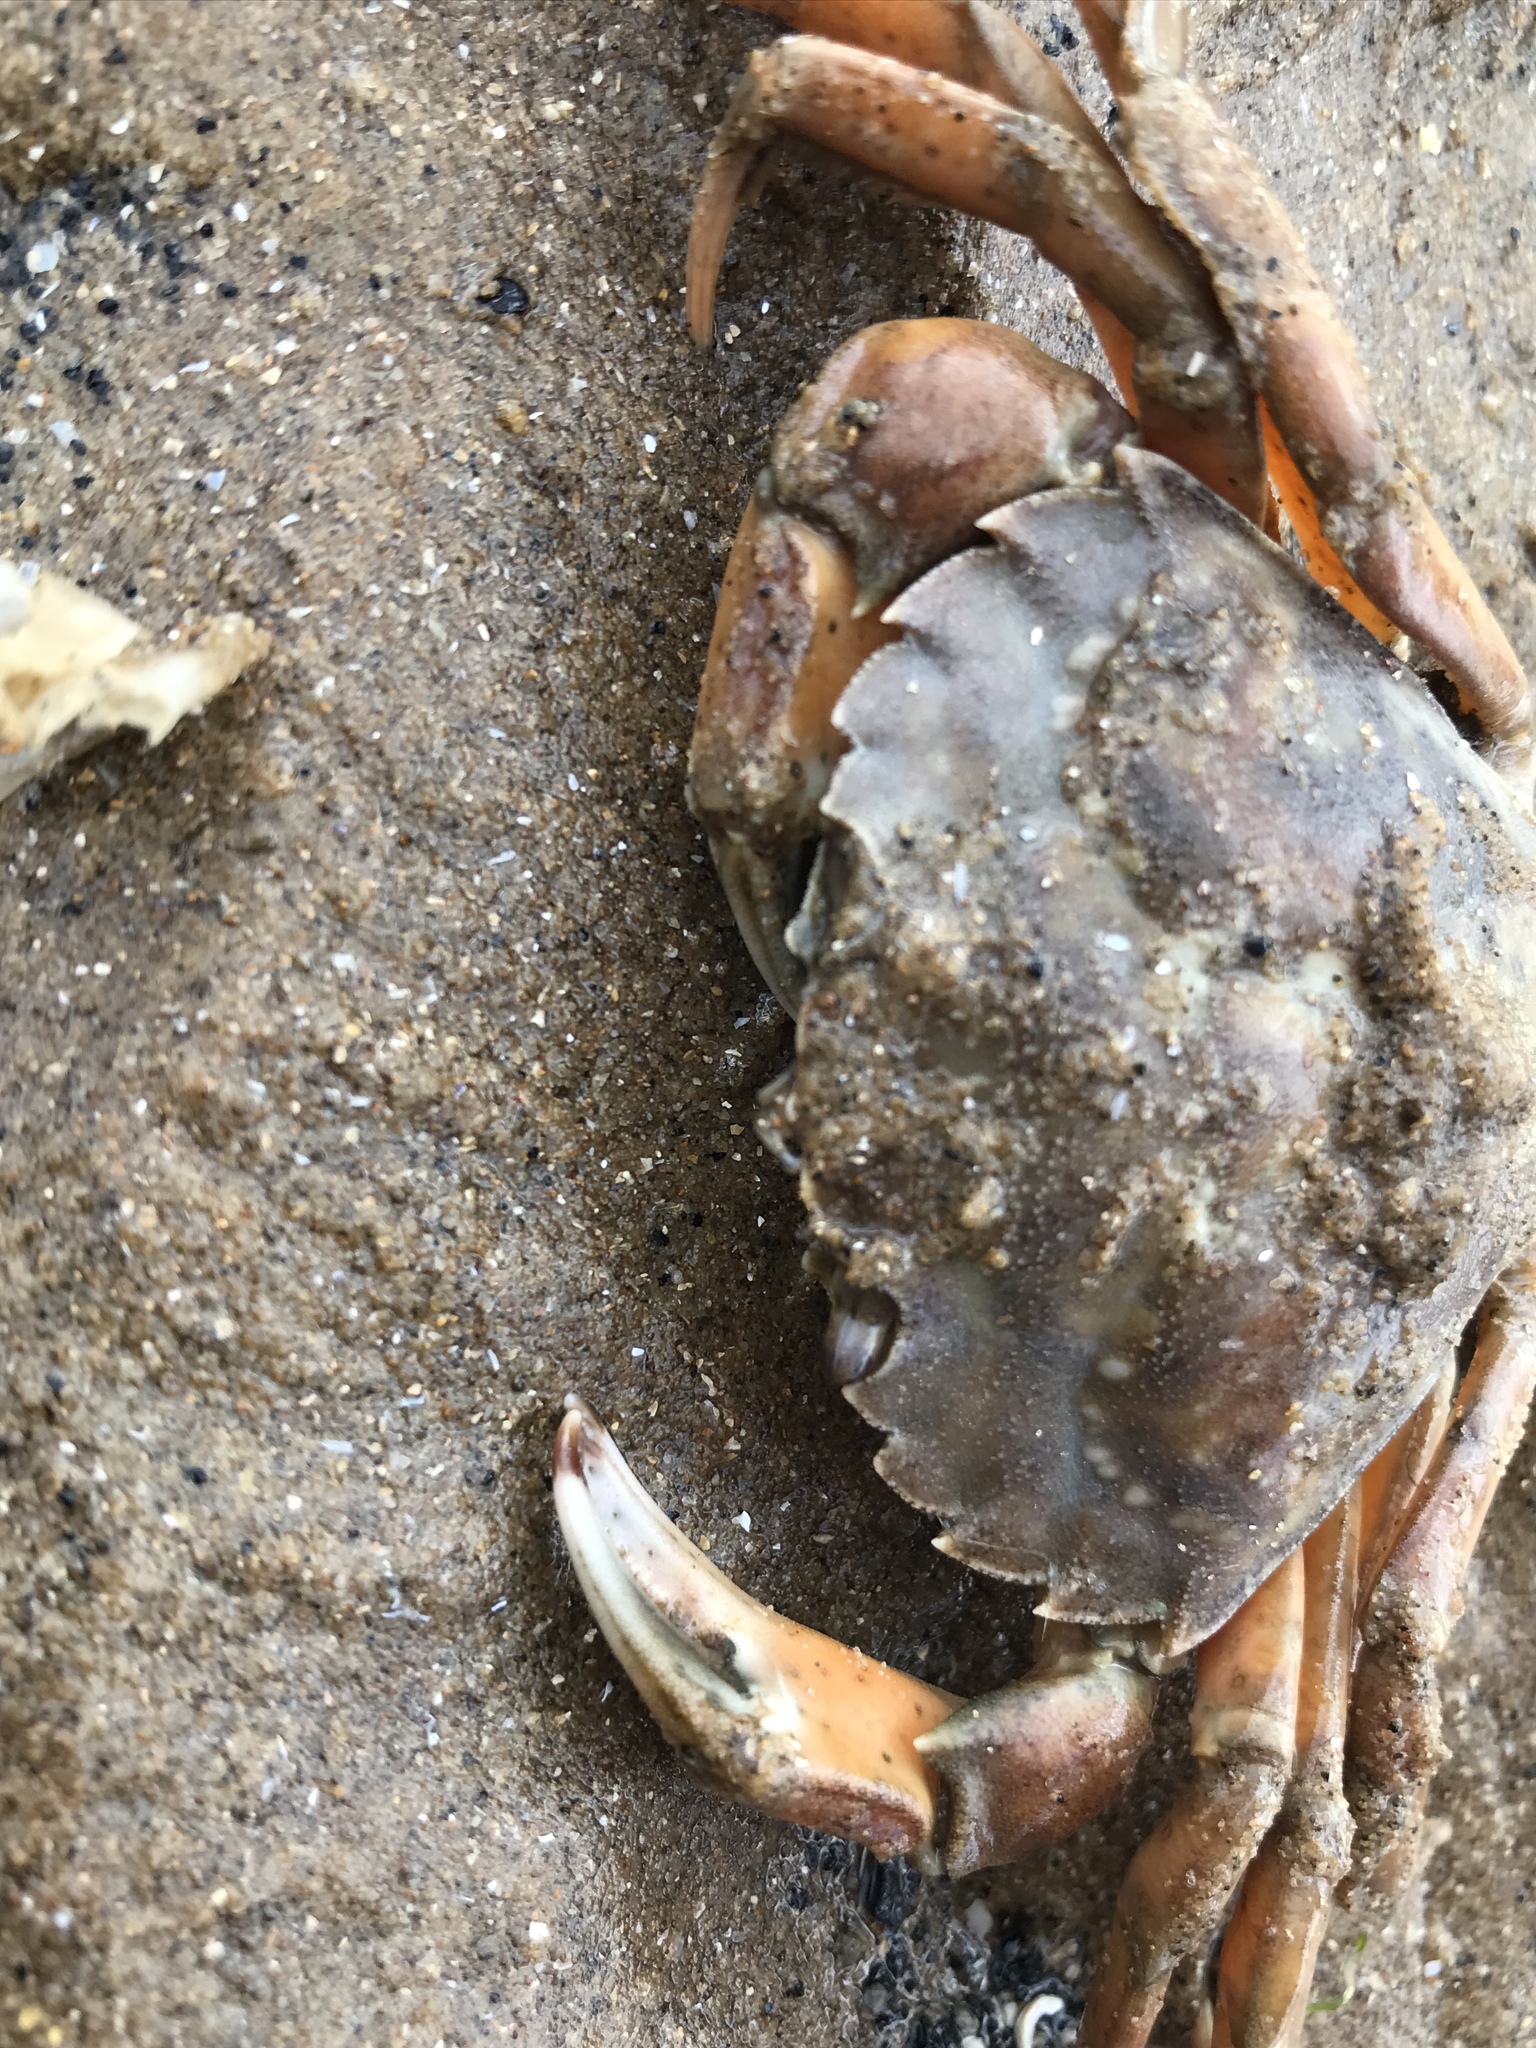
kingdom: Animalia
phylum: Arthropoda
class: Malacostraca
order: Decapoda
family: Carcinidae
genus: Carcinus
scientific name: Carcinus maenas
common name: European green crab
